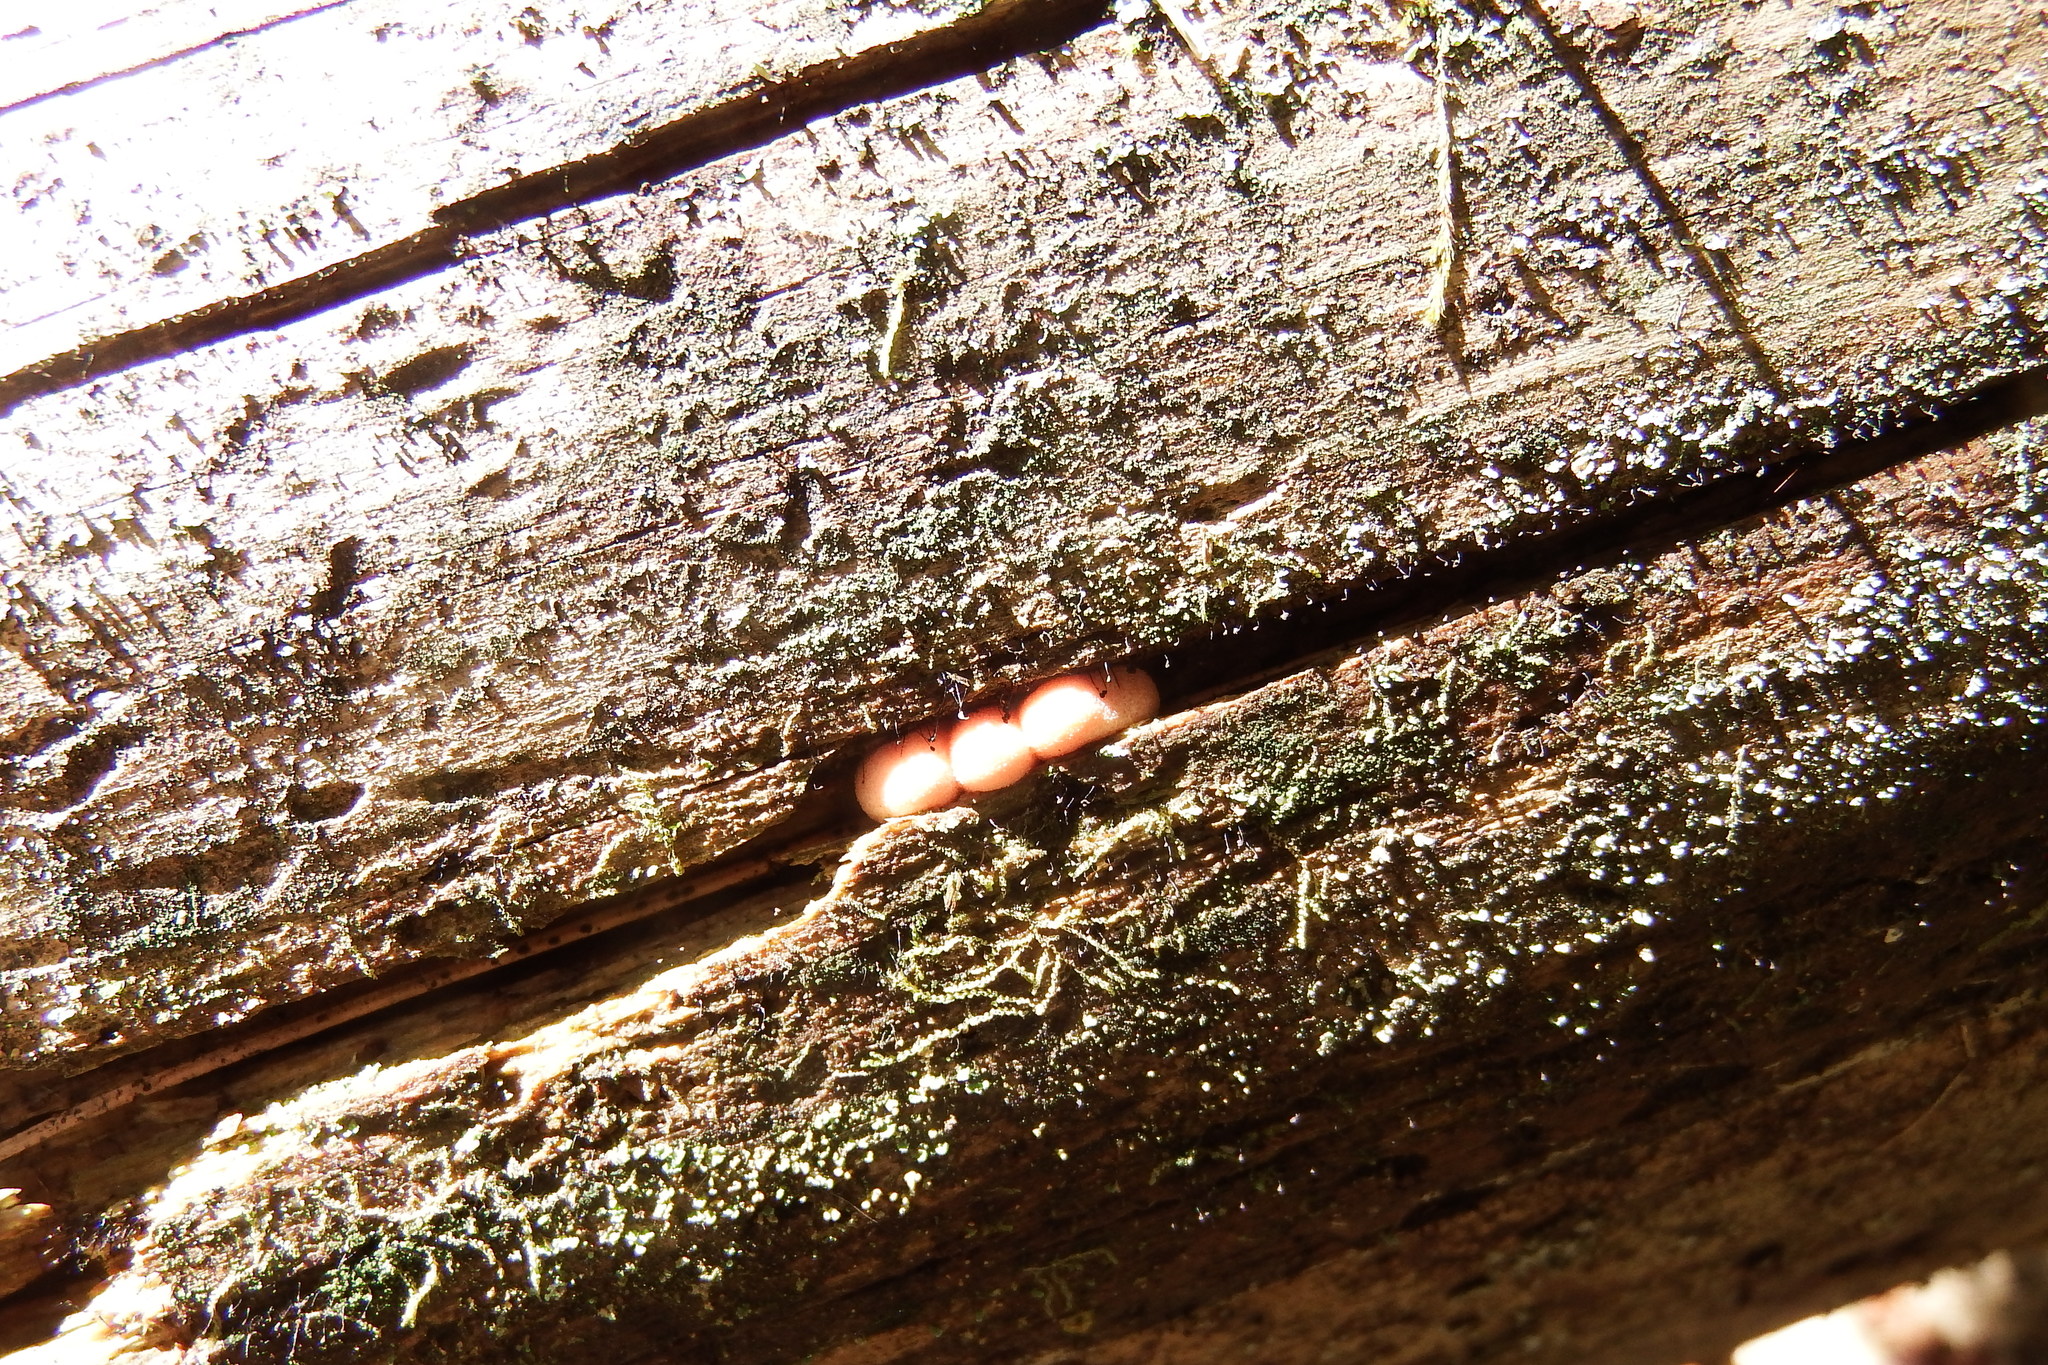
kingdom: Protozoa
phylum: Mycetozoa
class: Myxomycetes
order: Cribrariales
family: Tubiferaceae
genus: Lycogala
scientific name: Lycogala epidendrum
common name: Wolf's milk
